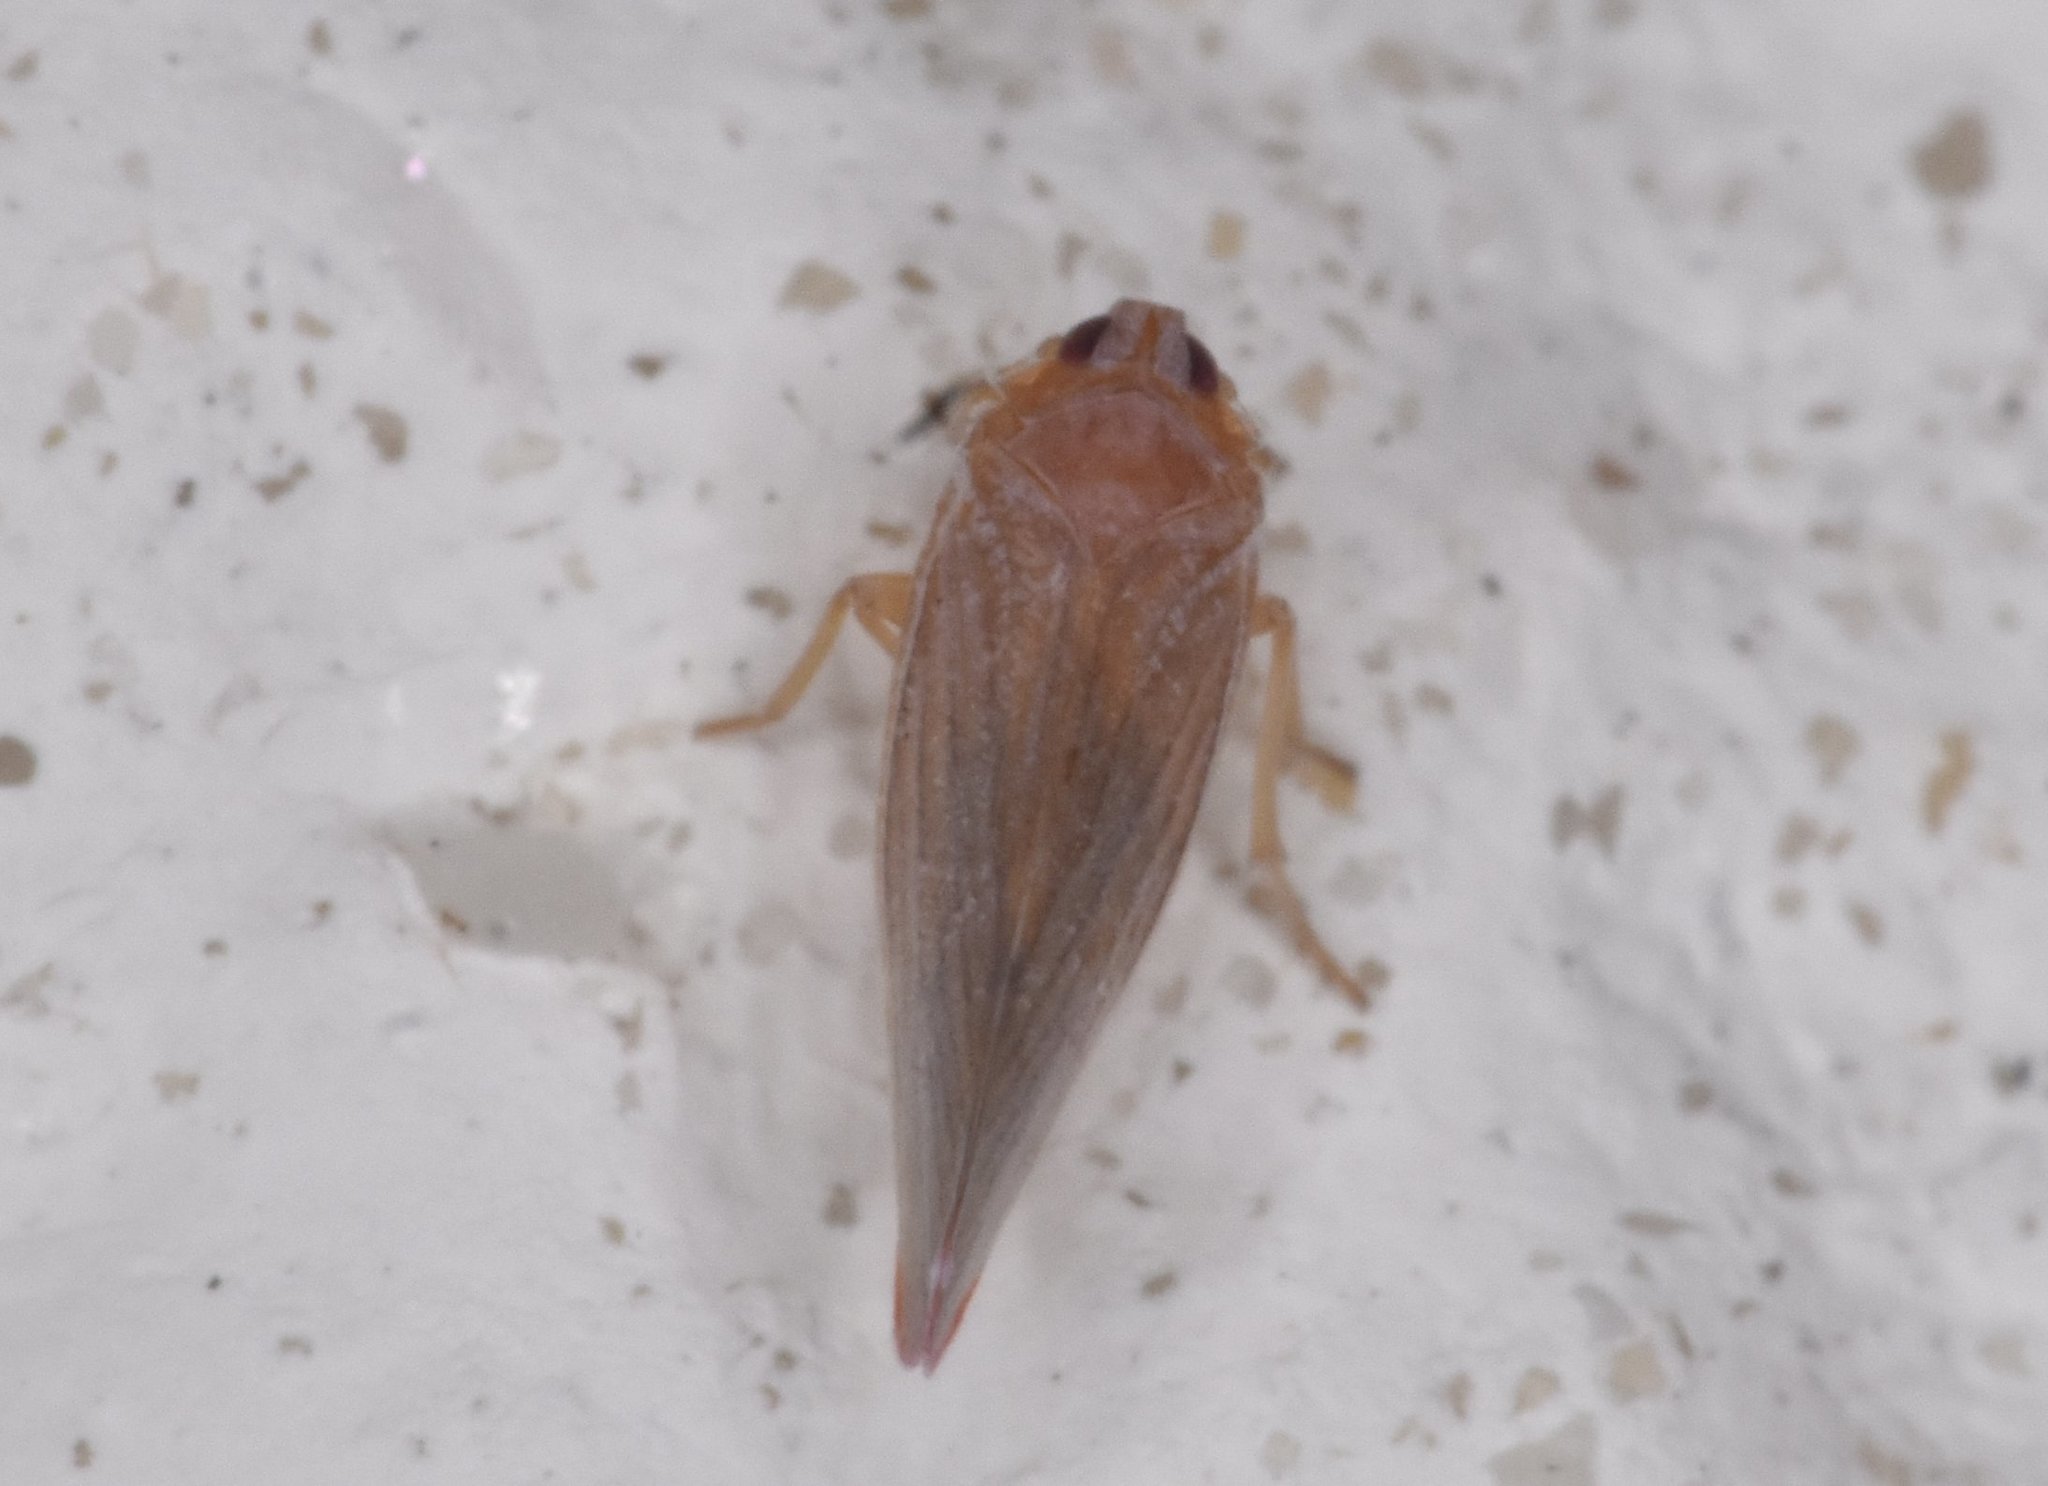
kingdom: Animalia
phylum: Arthropoda
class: Insecta
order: Hemiptera
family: Derbidae
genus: Omolicna
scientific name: Omolicna mcateei
